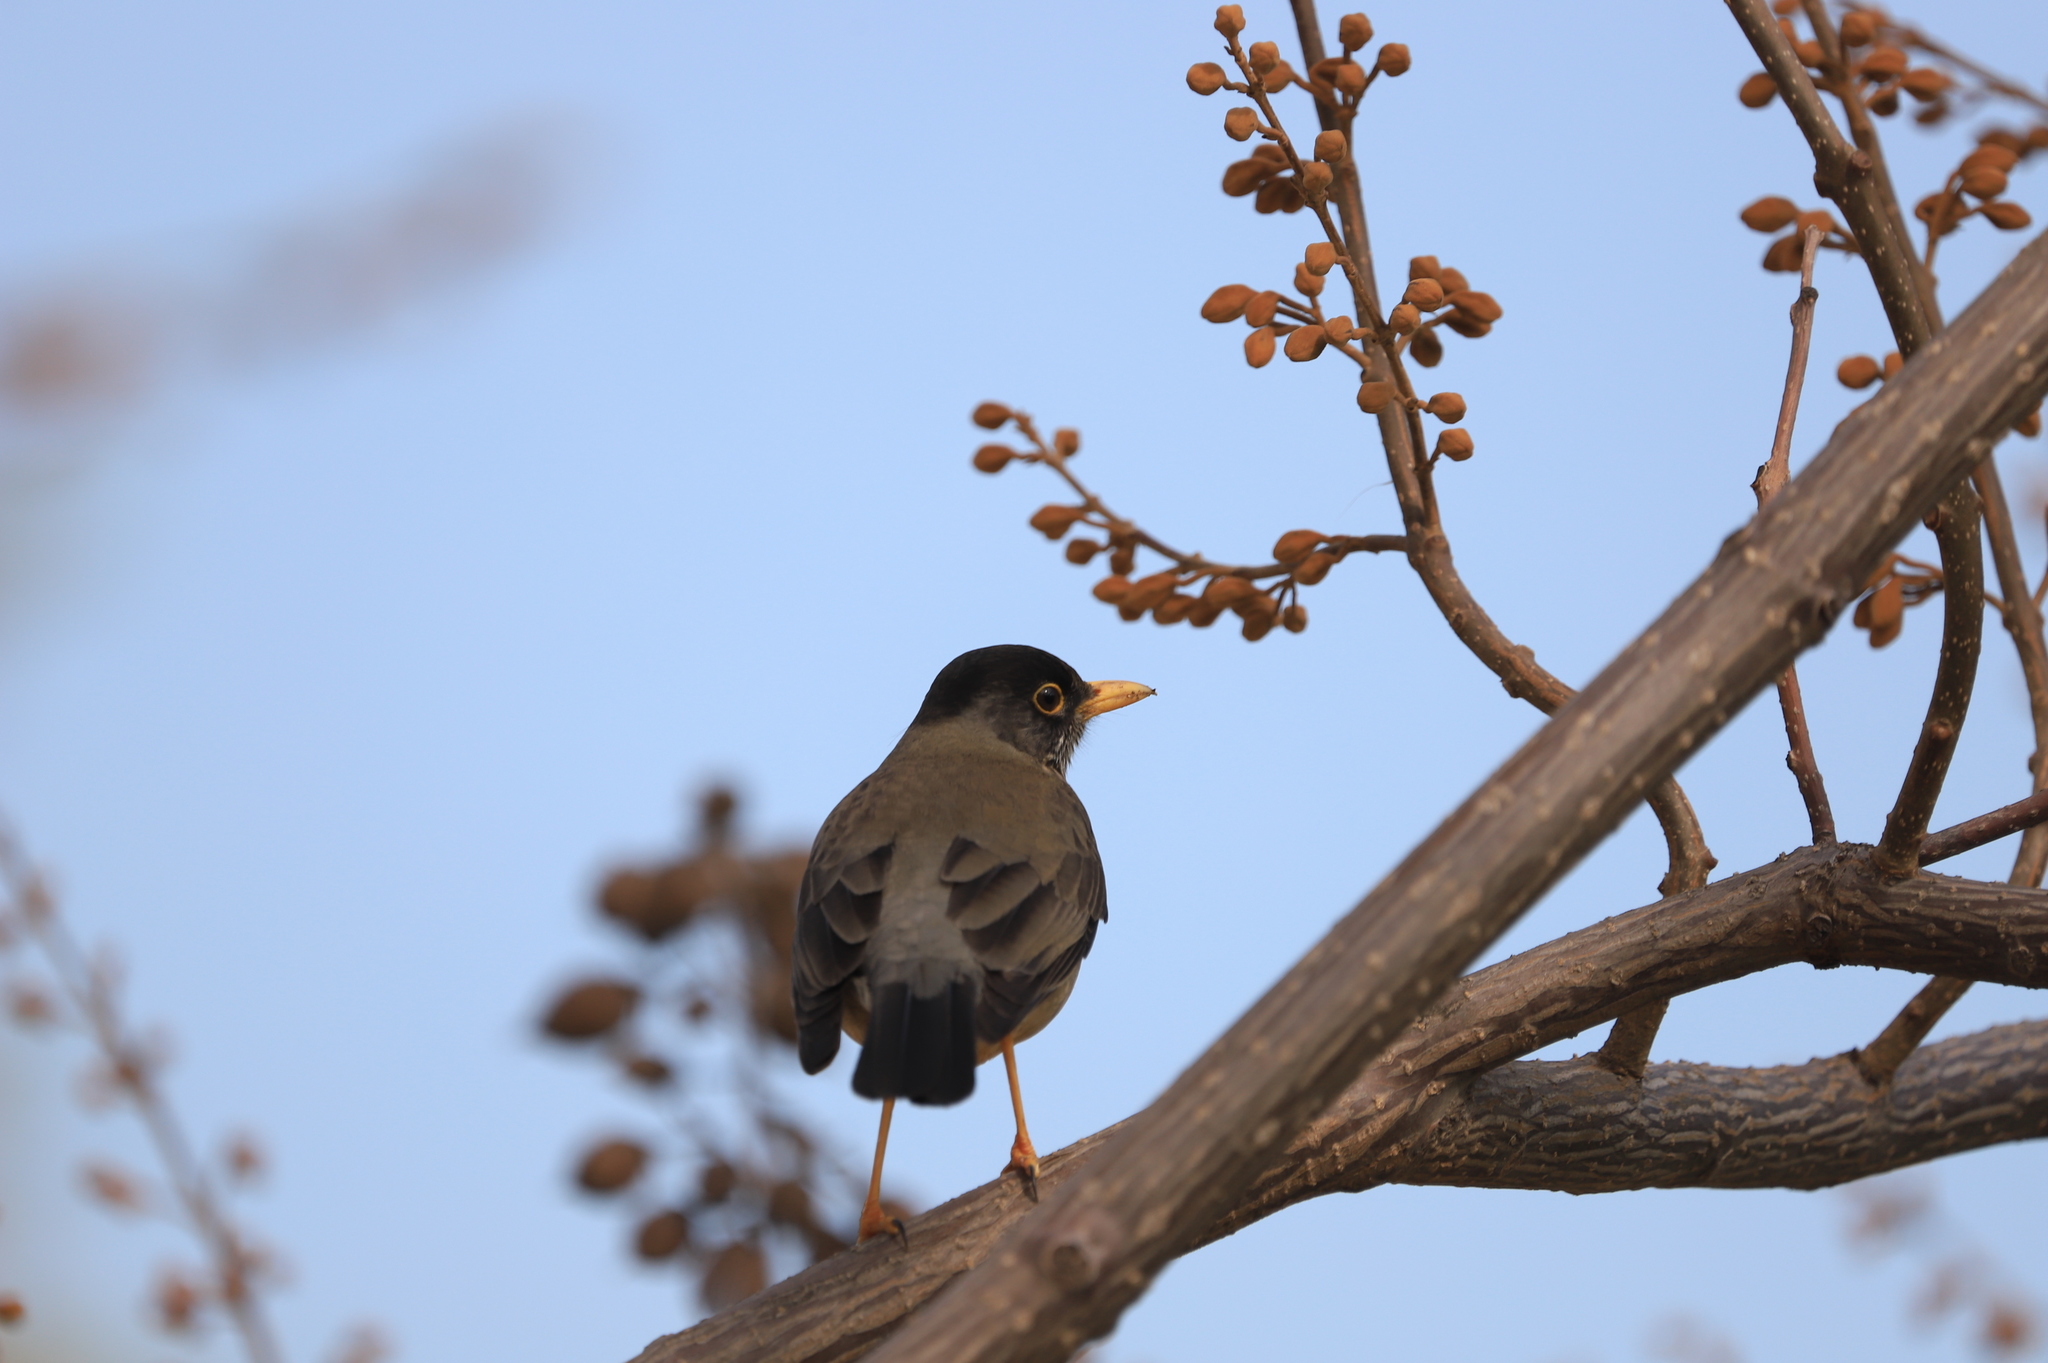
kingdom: Animalia
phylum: Chordata
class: Aves
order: Passeriformes
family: Turdidae
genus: Turdus
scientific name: Turdus falcklandii
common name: Austral thrush
